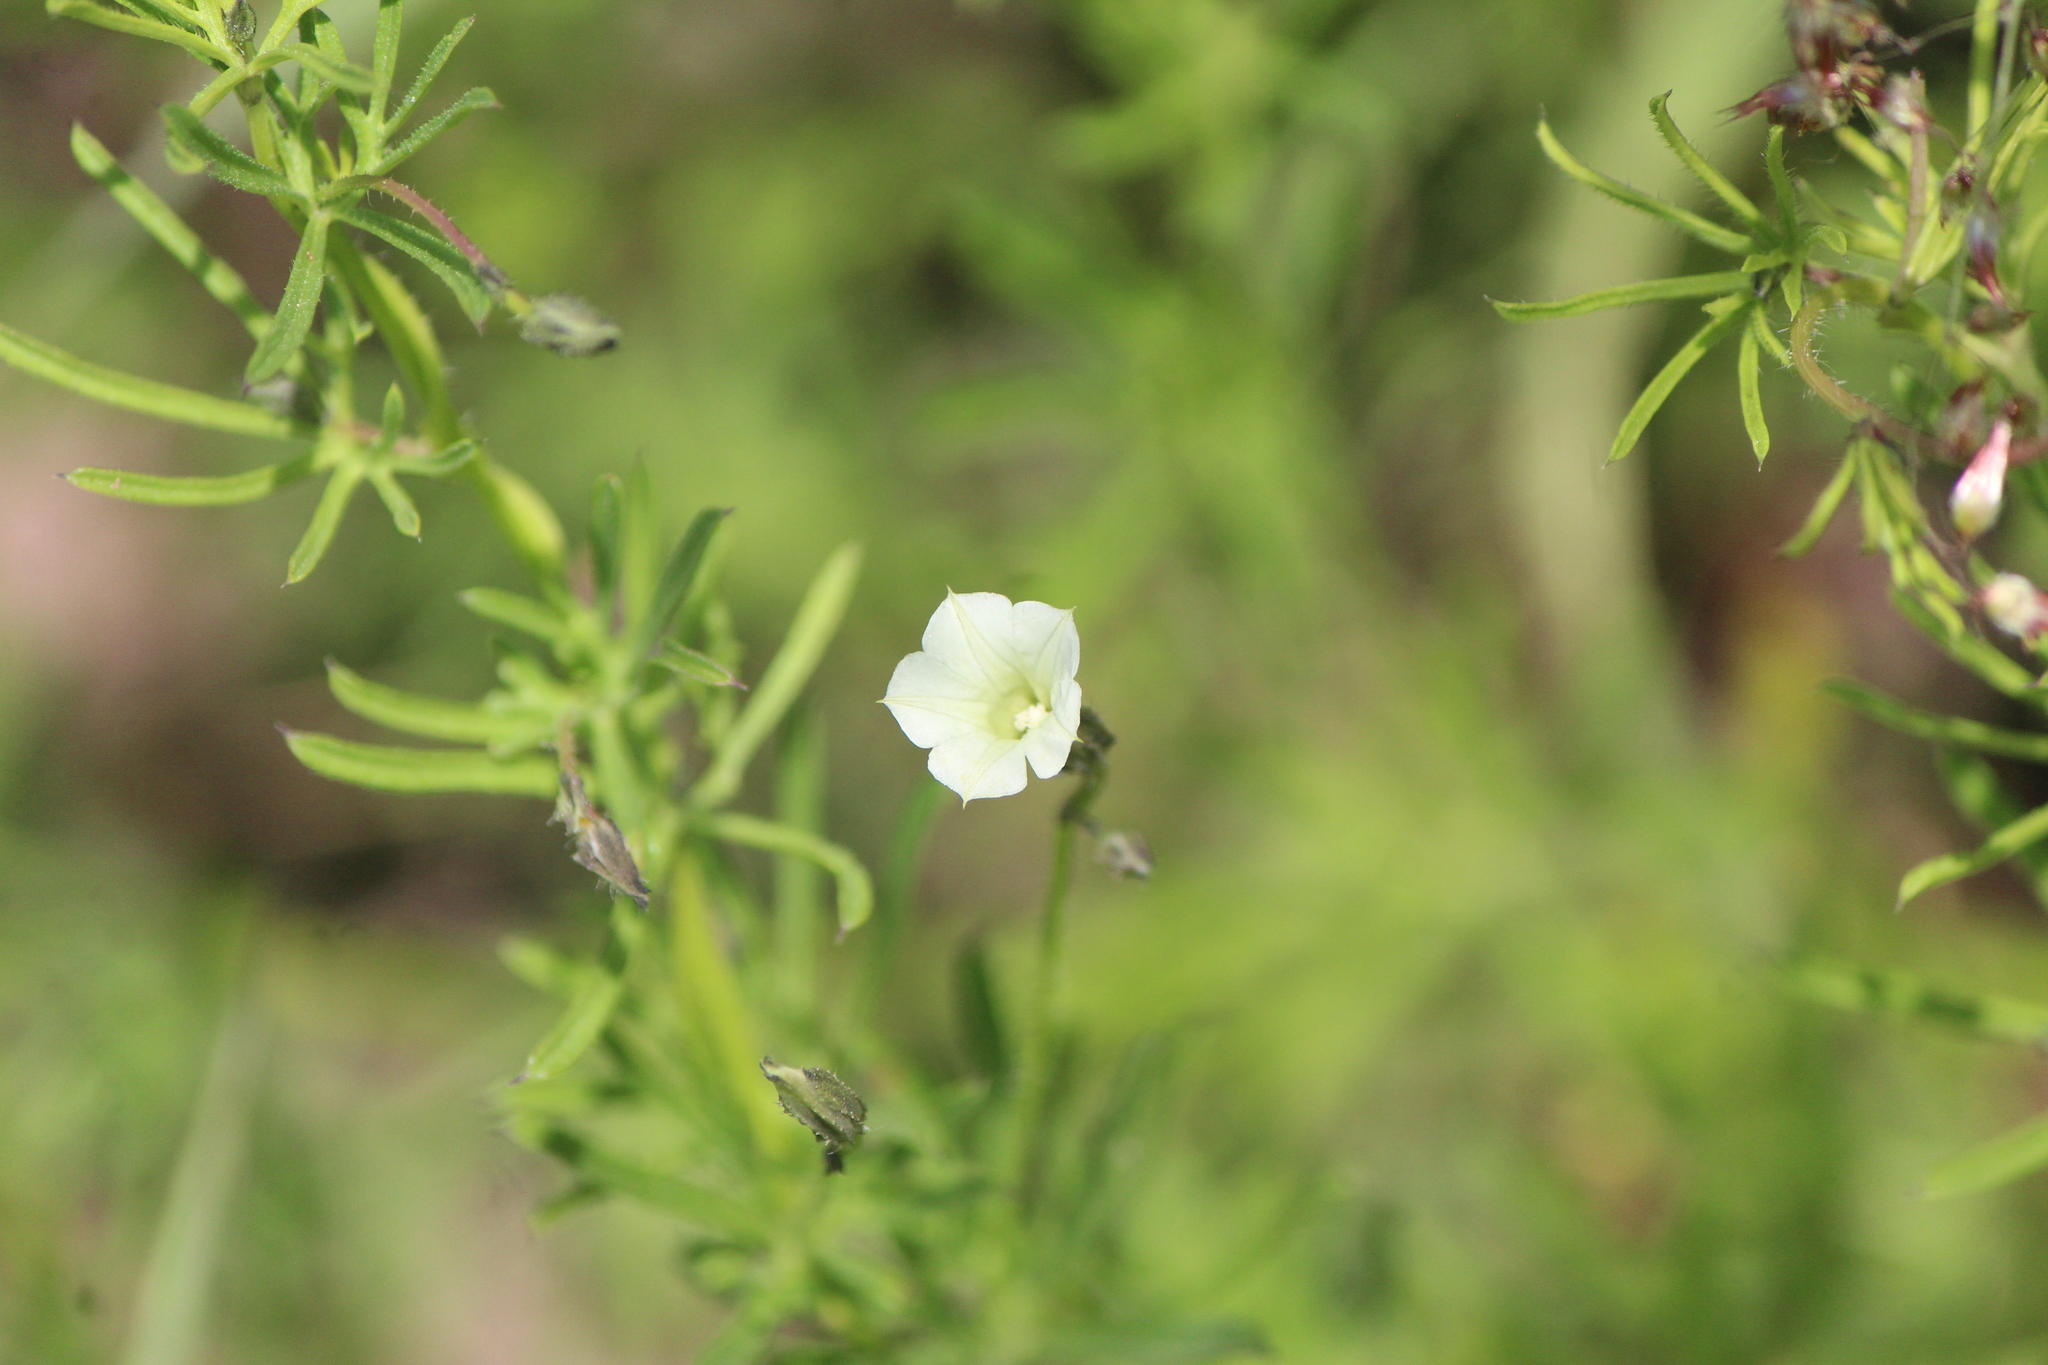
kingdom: Plantae
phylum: Tracheophyta
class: Magnoliopsida
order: Solanales
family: Convolvulaceae
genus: Ipomoea
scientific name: Ipomoea costellata
